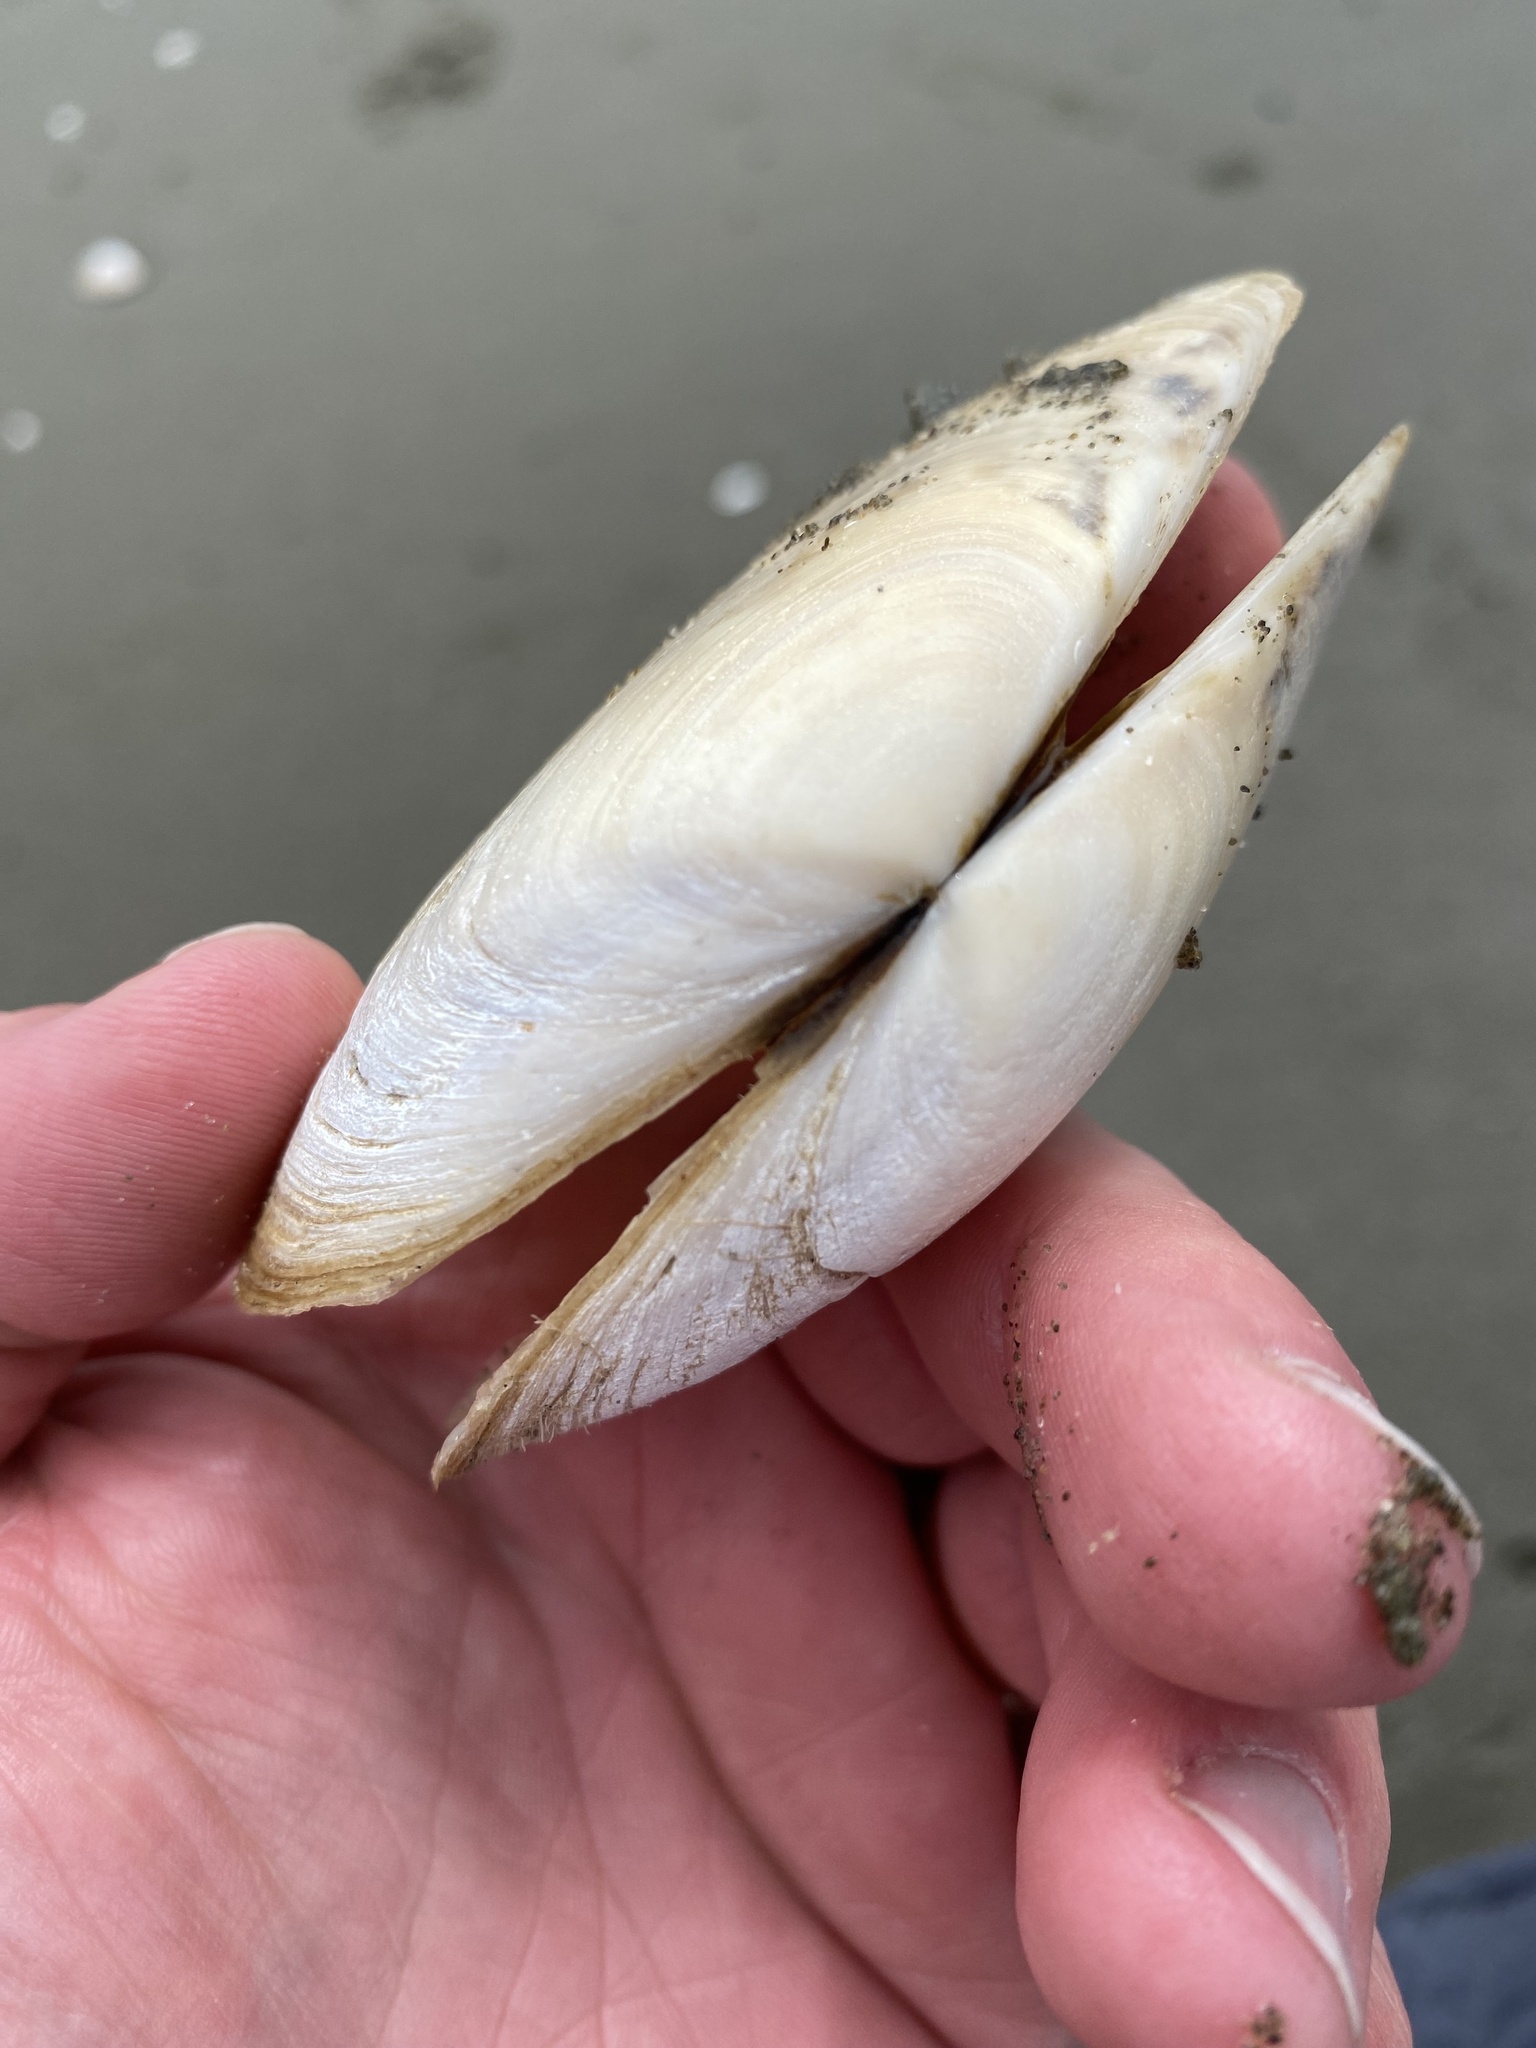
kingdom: Animalia
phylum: Mollusca
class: Bivalvia
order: Venerida
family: Mesodesmatidae
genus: Paphies
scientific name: Paphies donacina
